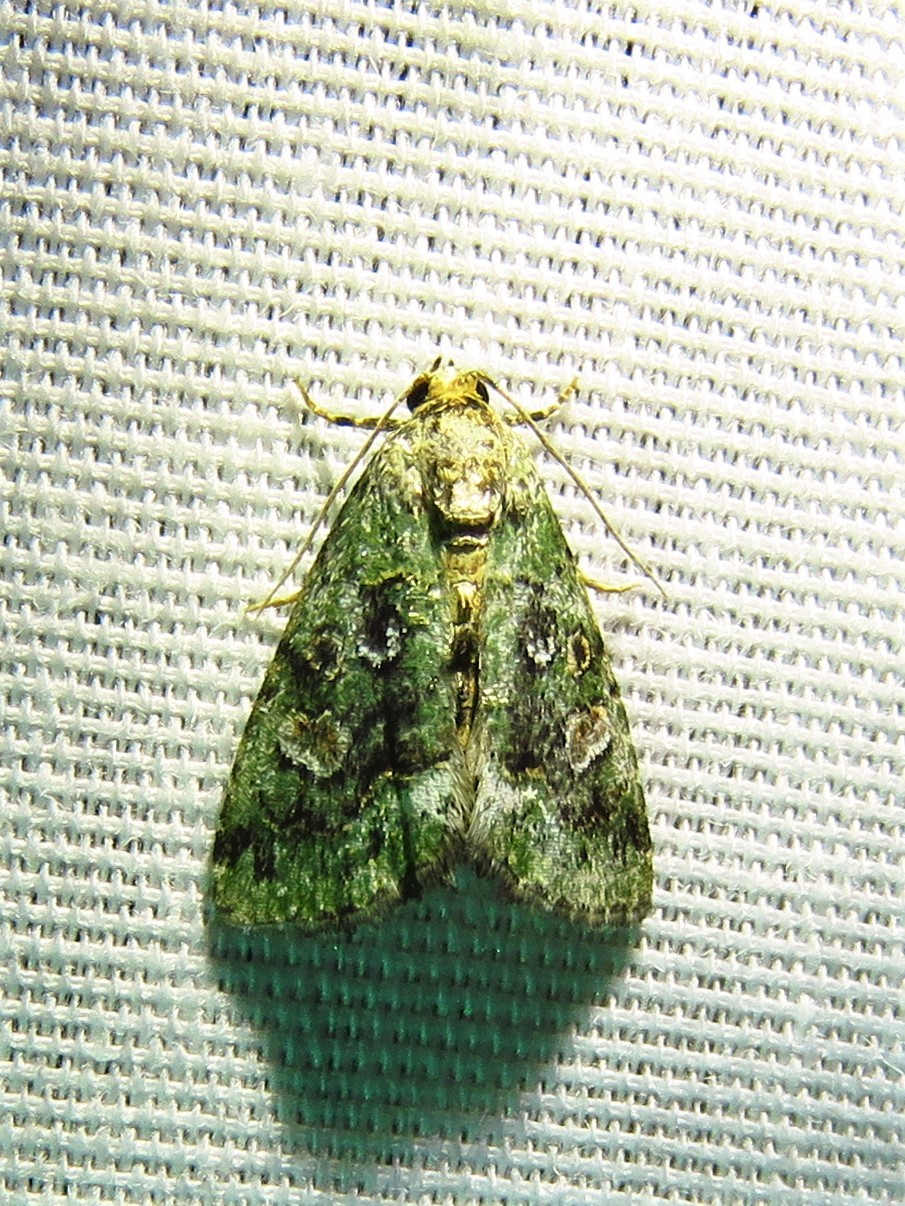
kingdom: Animalia
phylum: Arthropoda
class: Insecta
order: Lepidoptera
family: Noctuidae
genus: Lithacodia
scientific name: Lithacodia musta
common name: Small mossy glyph
